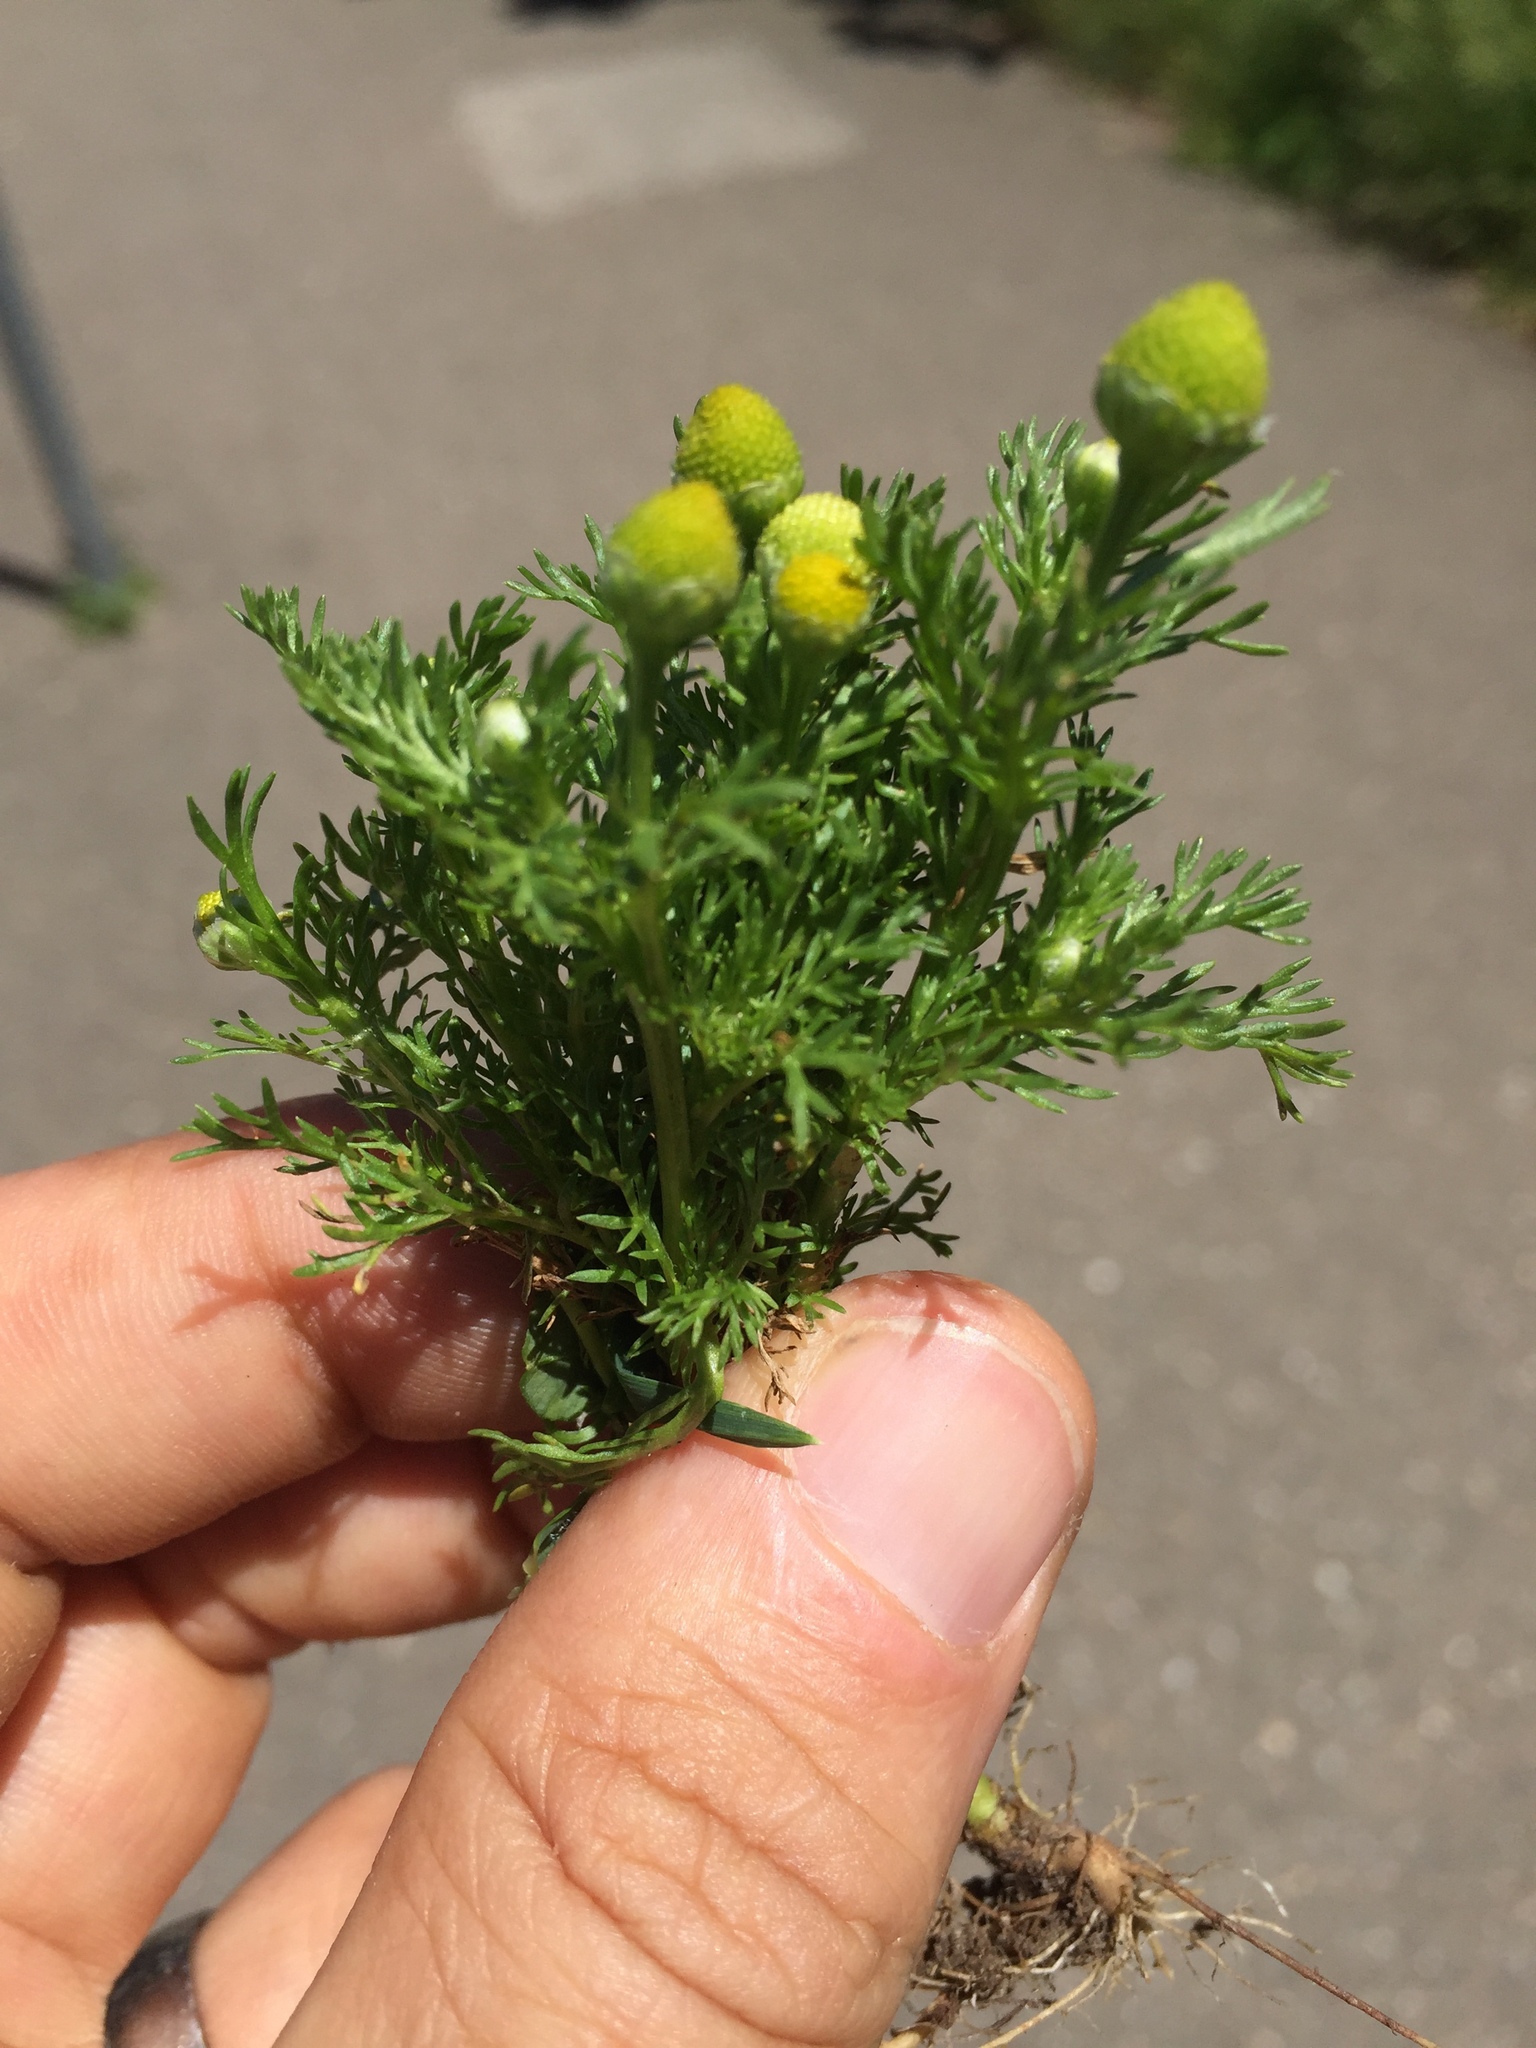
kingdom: Plantae
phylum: Tracheophyta
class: Magnoliopsida
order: Asterales
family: Asteraceae
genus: Matricaria
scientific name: Matricaria discoidea
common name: Disc mayweed
